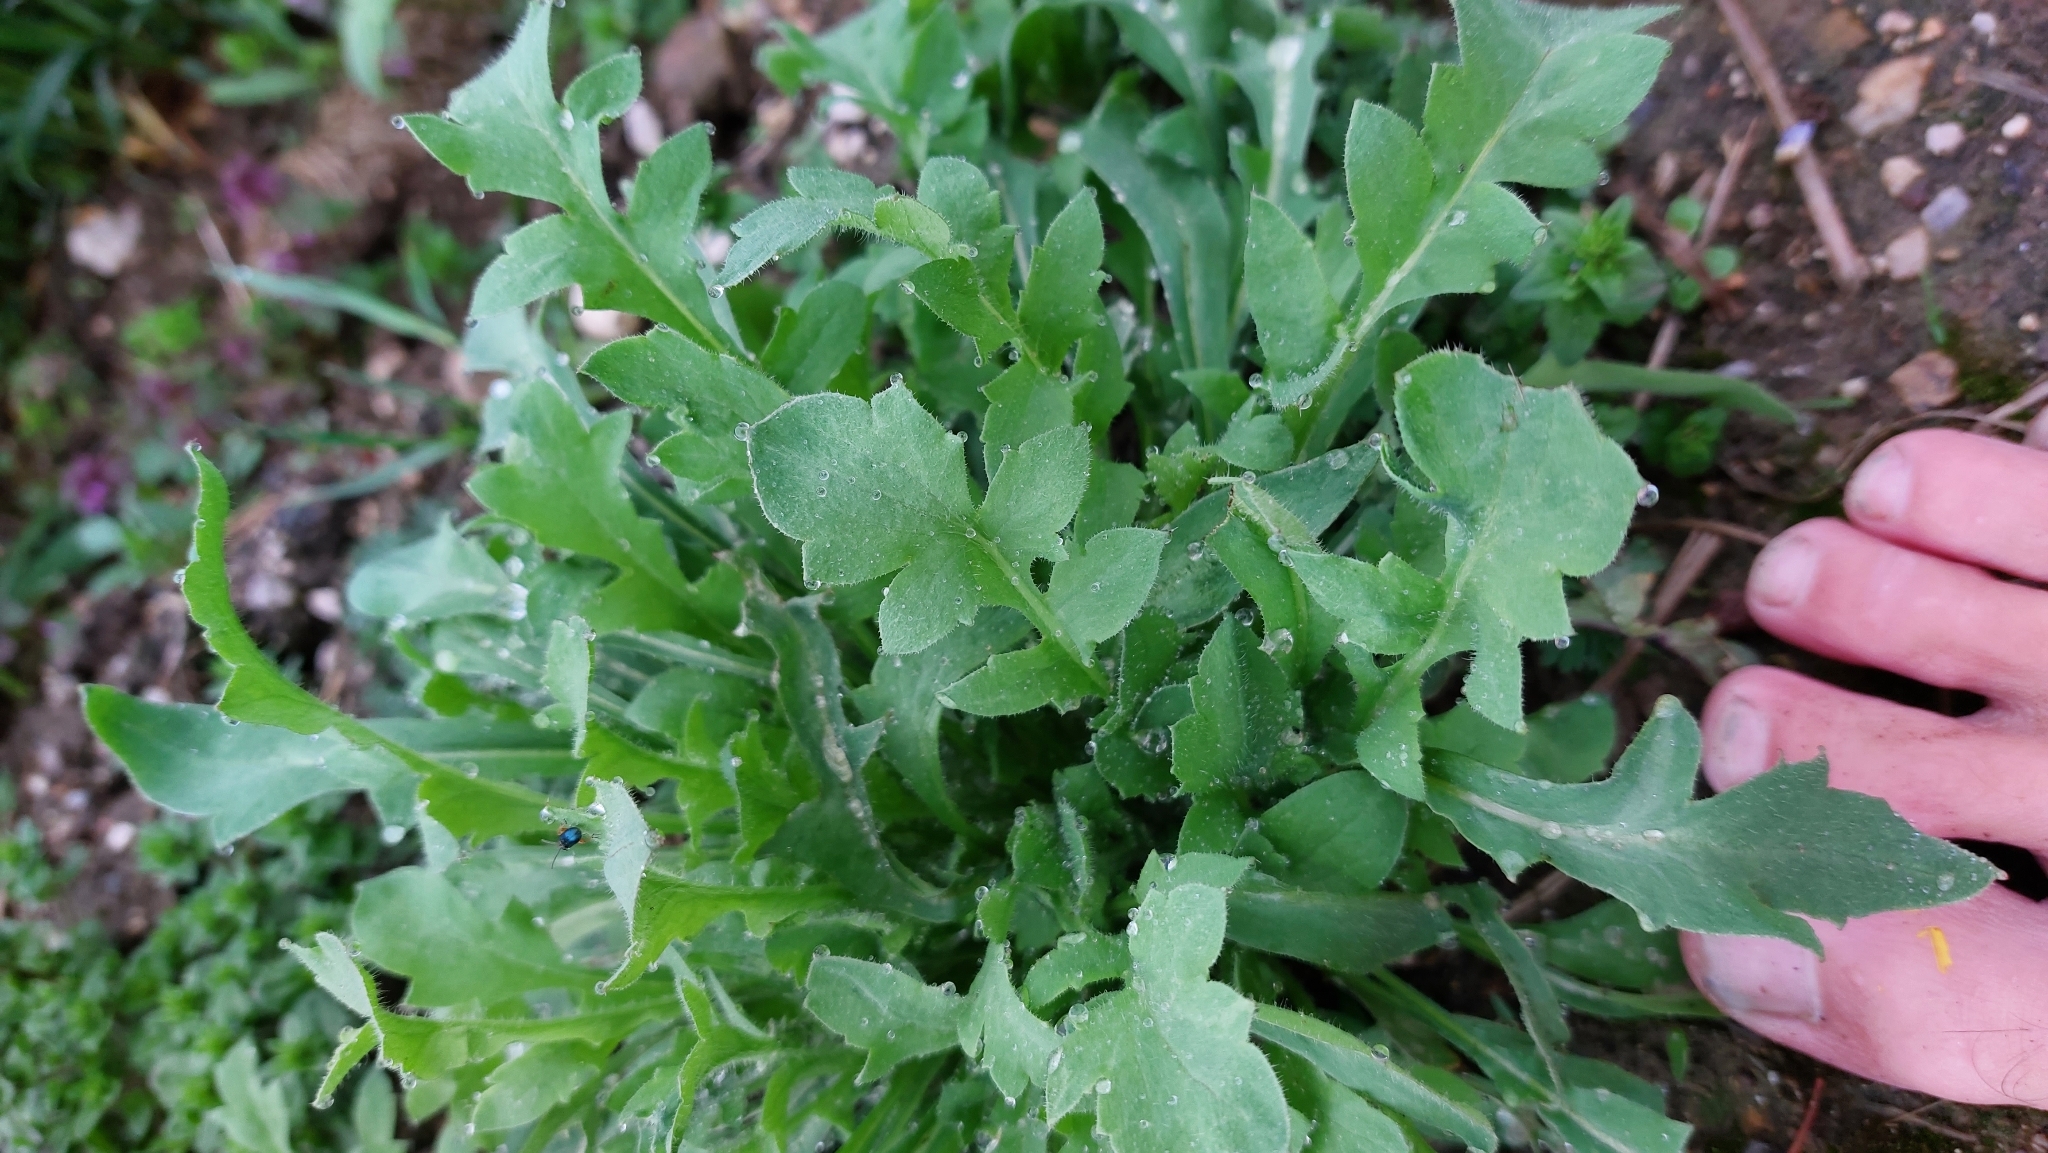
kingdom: Plantae
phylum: Tracheophyta
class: Magnoliopsida
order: Brassicales
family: Brassicaceae
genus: Capsella
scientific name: Capsella bursa-pastoris
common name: Shepherd's purse
